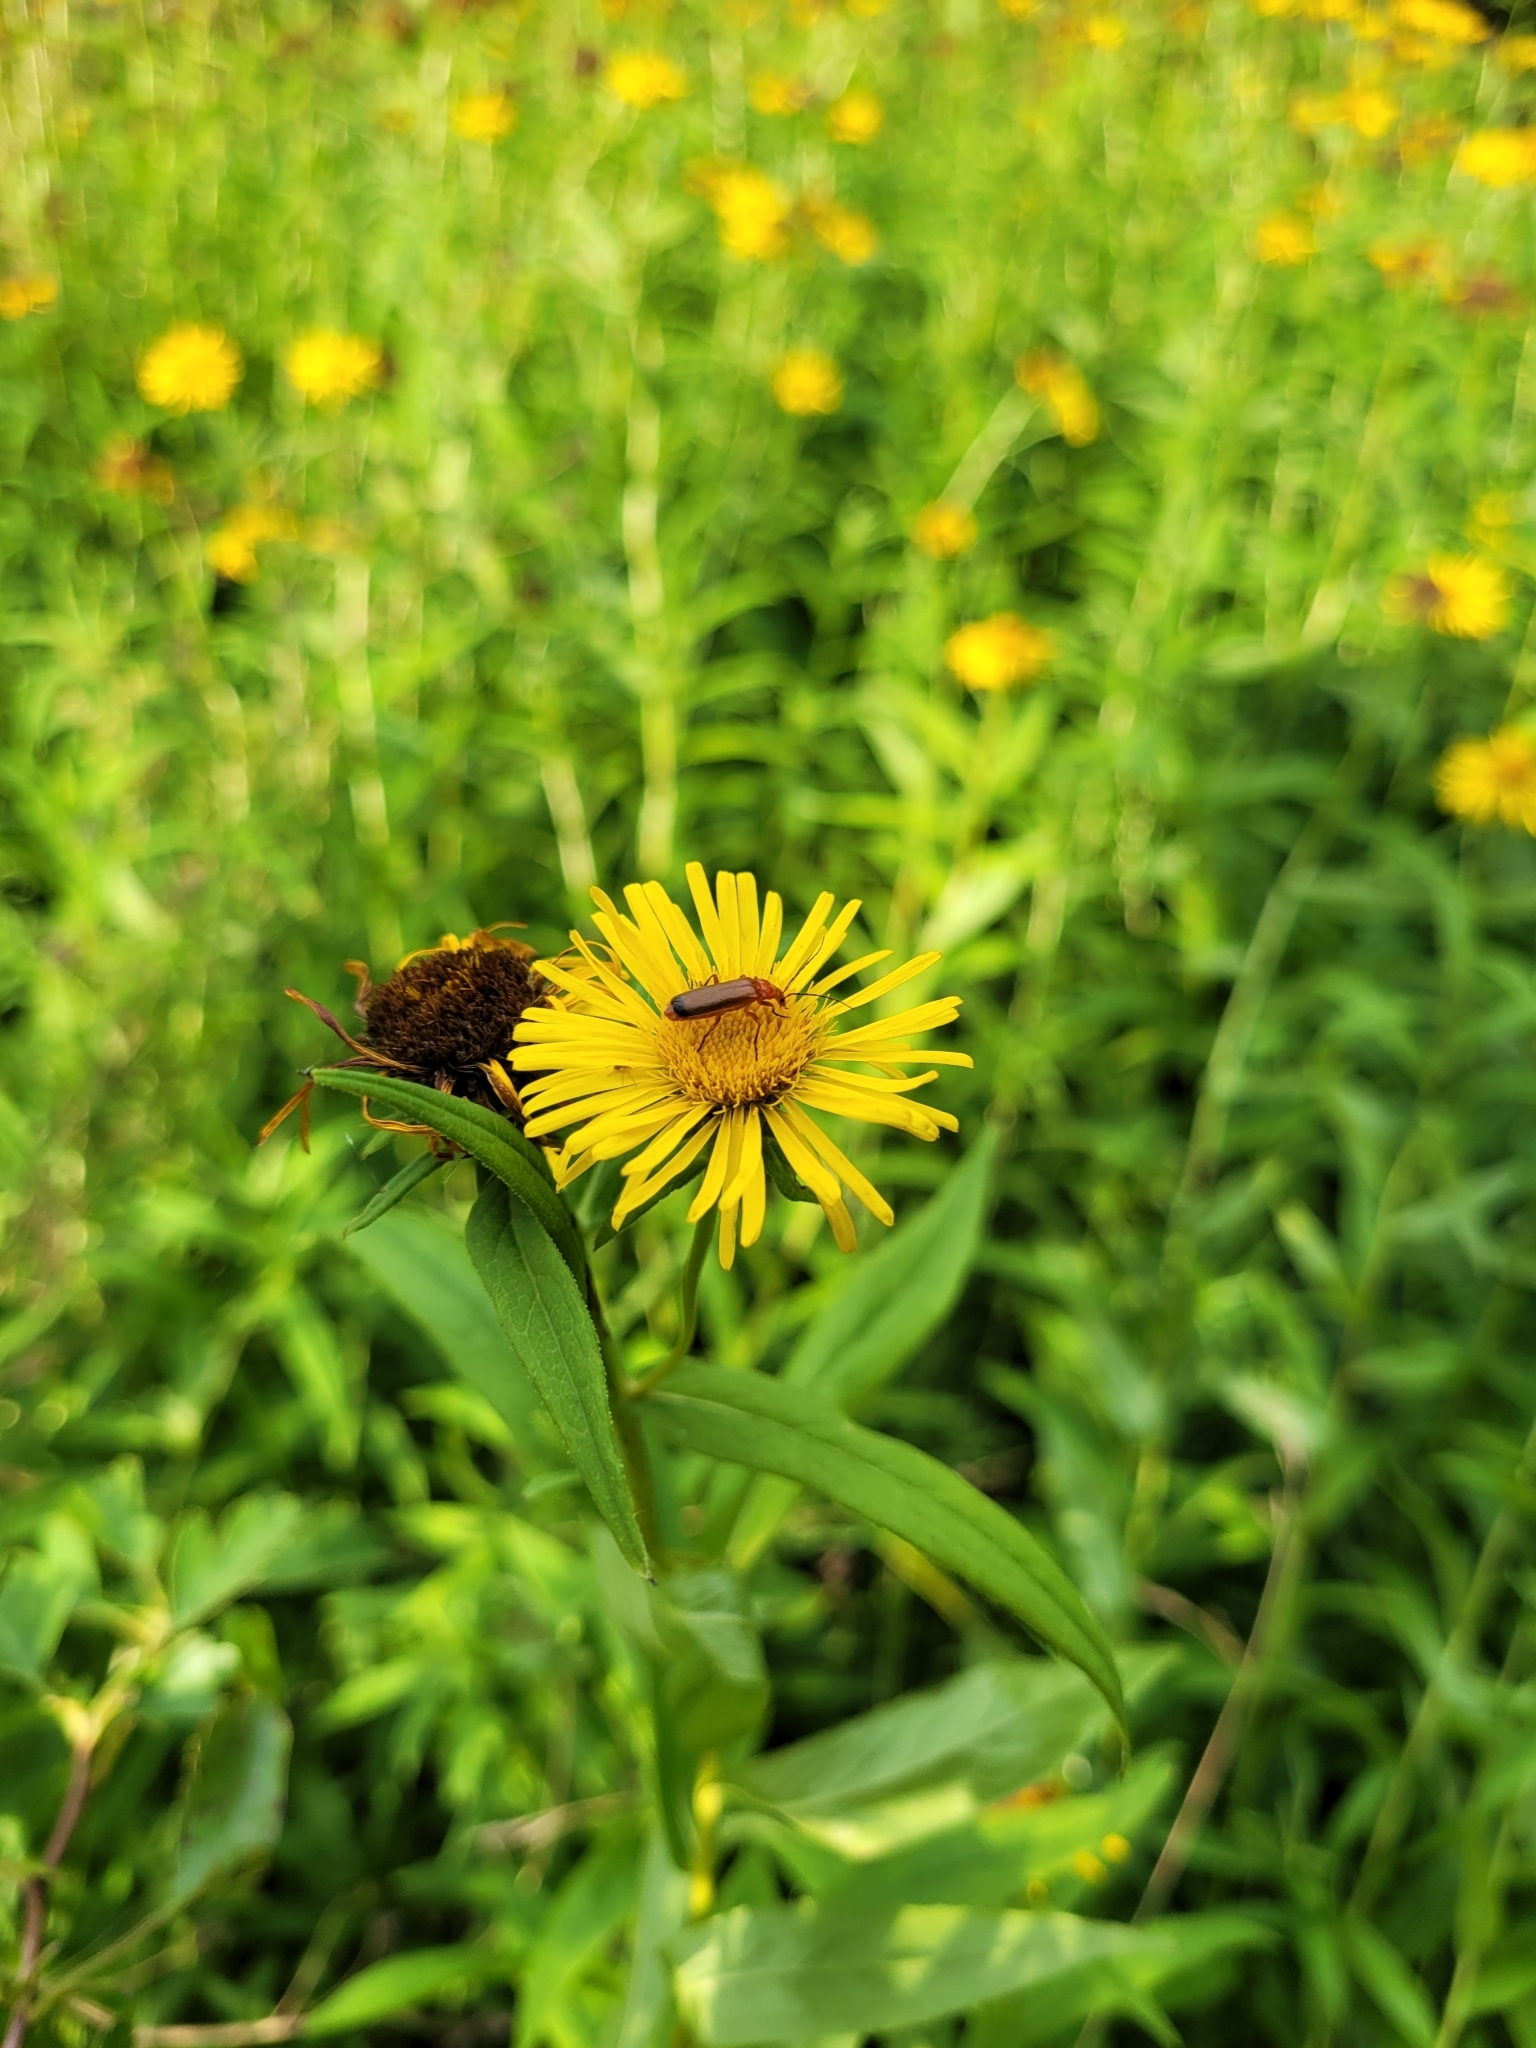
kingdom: Plantae
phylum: Tracheophyta
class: Magnoliopsida
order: Asterales
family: Asteraceae
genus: Pentanema
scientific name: Pentanema salicinum
